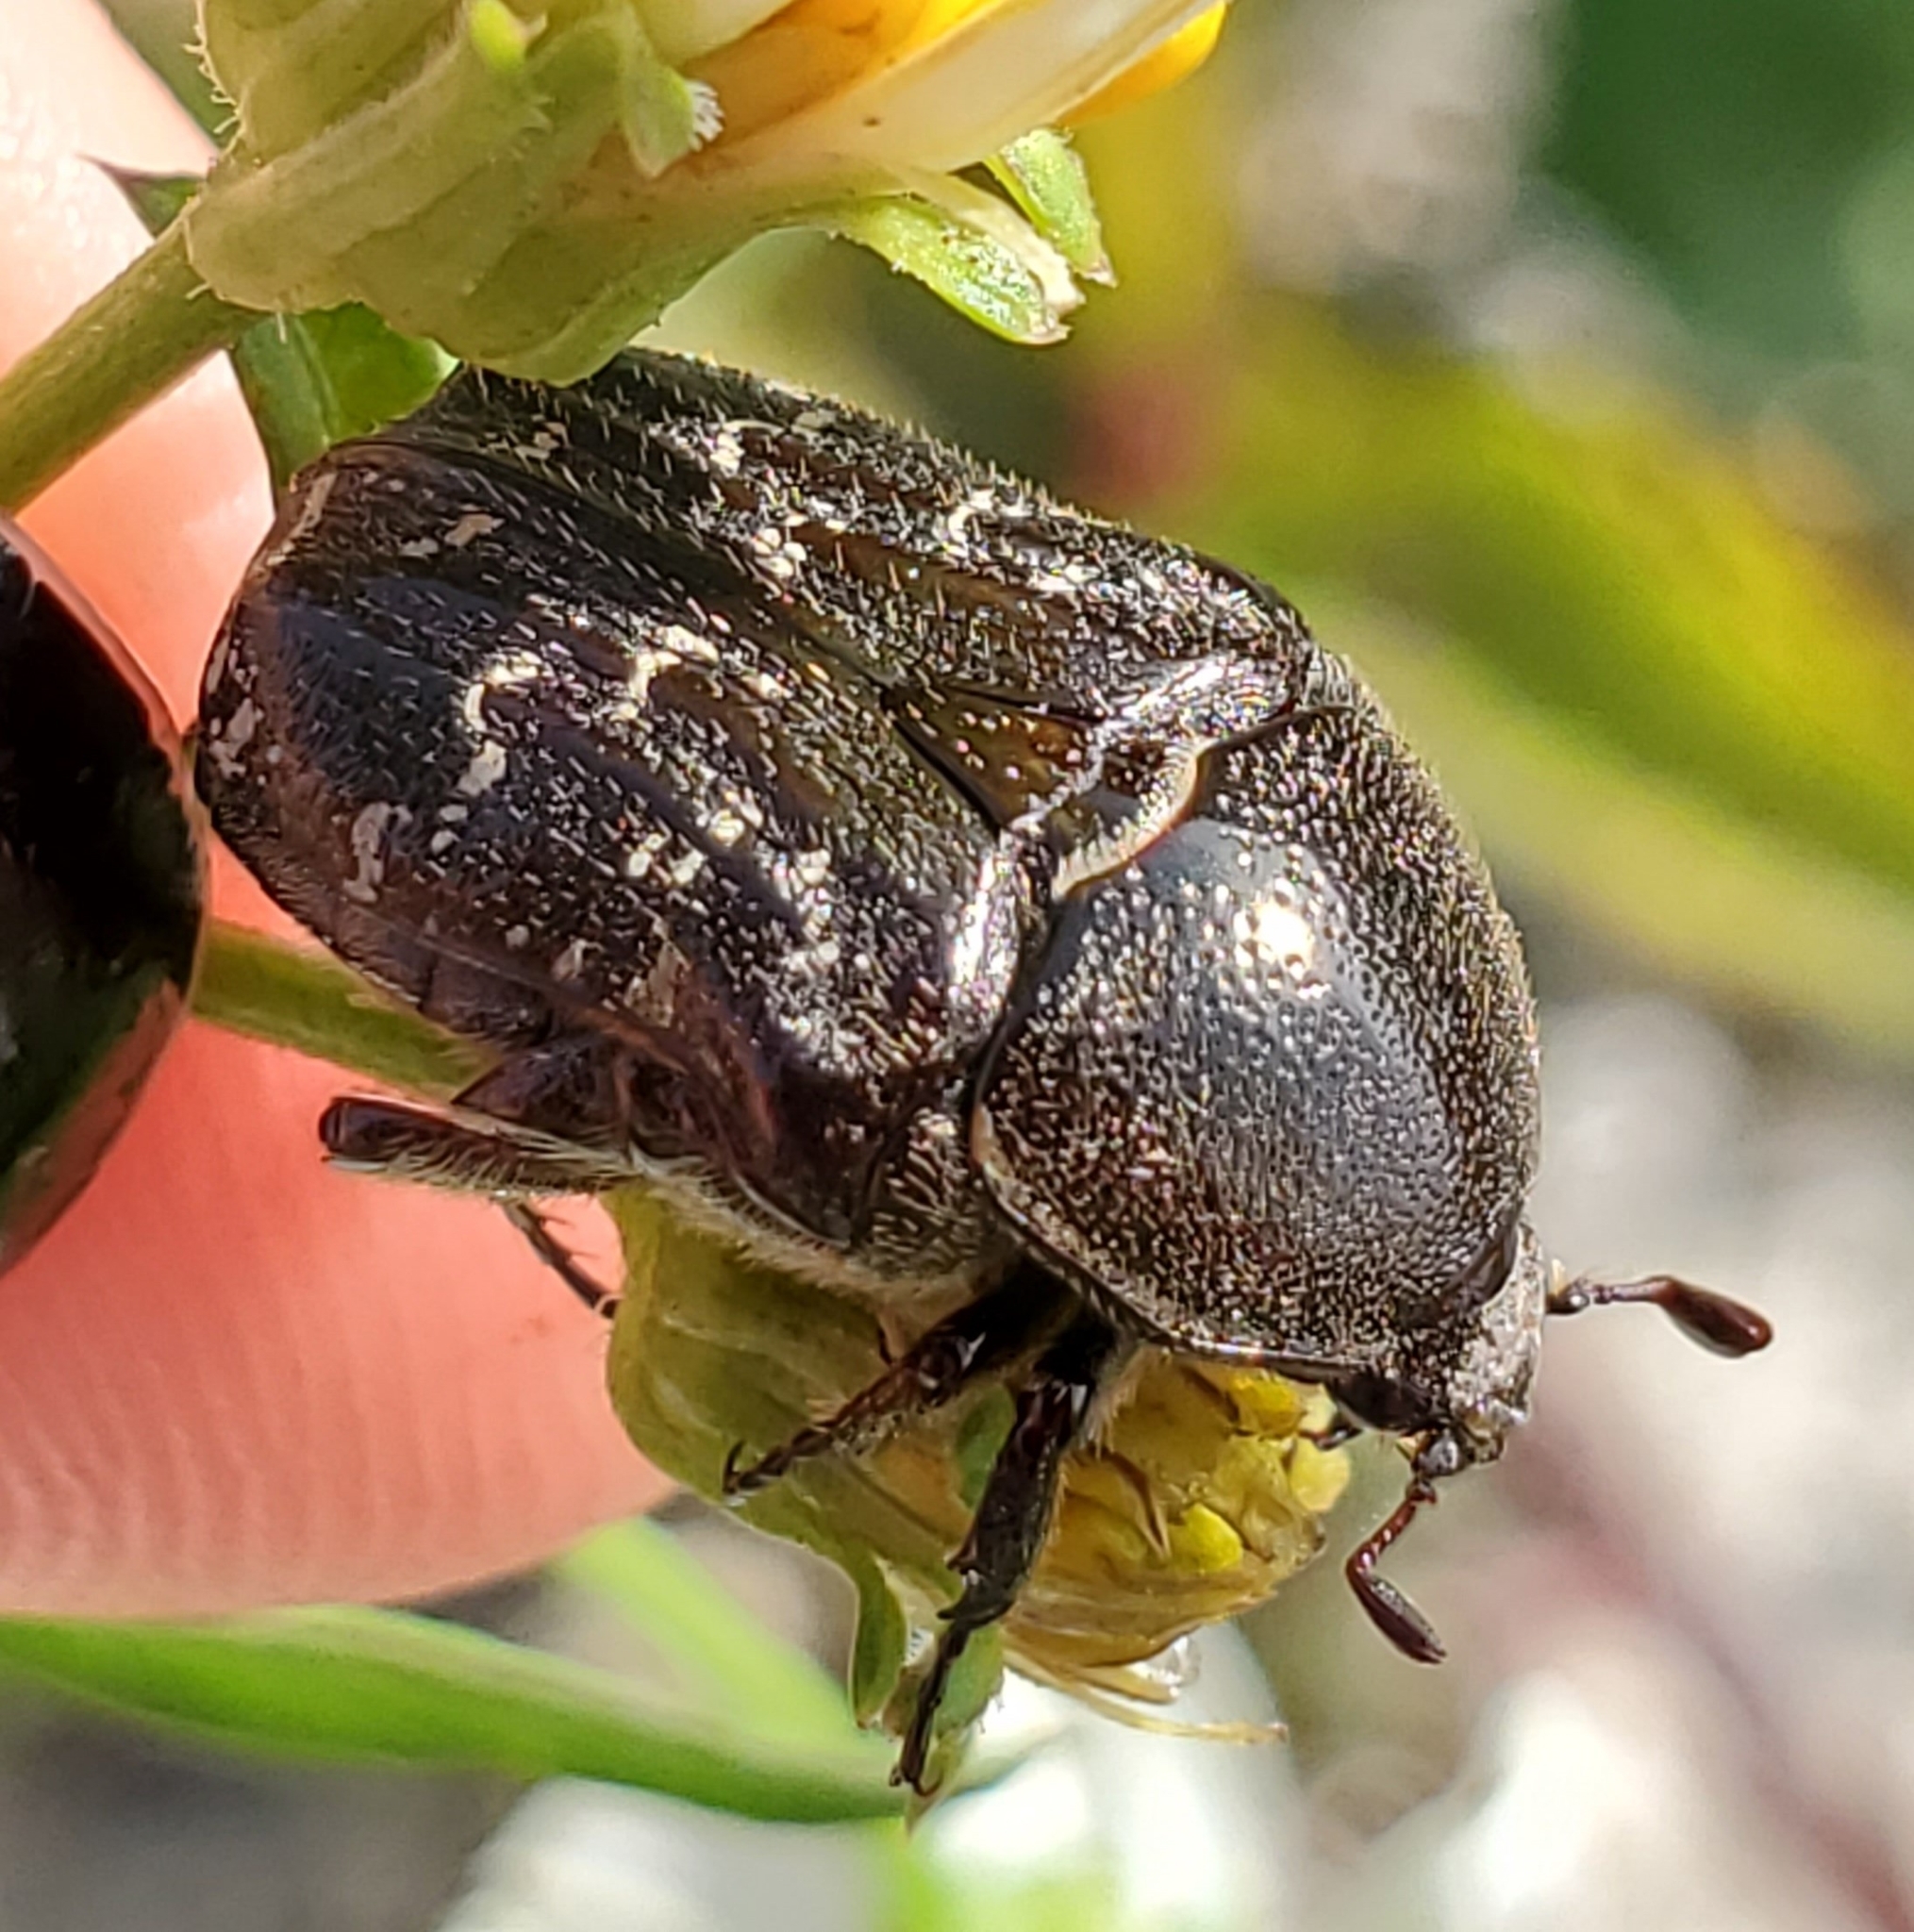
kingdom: Animalia
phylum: Arthropoda
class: Insecta
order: Coleoptera
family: Scarabaeidae
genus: Euphoria
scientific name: Euphoria sepulcralis
